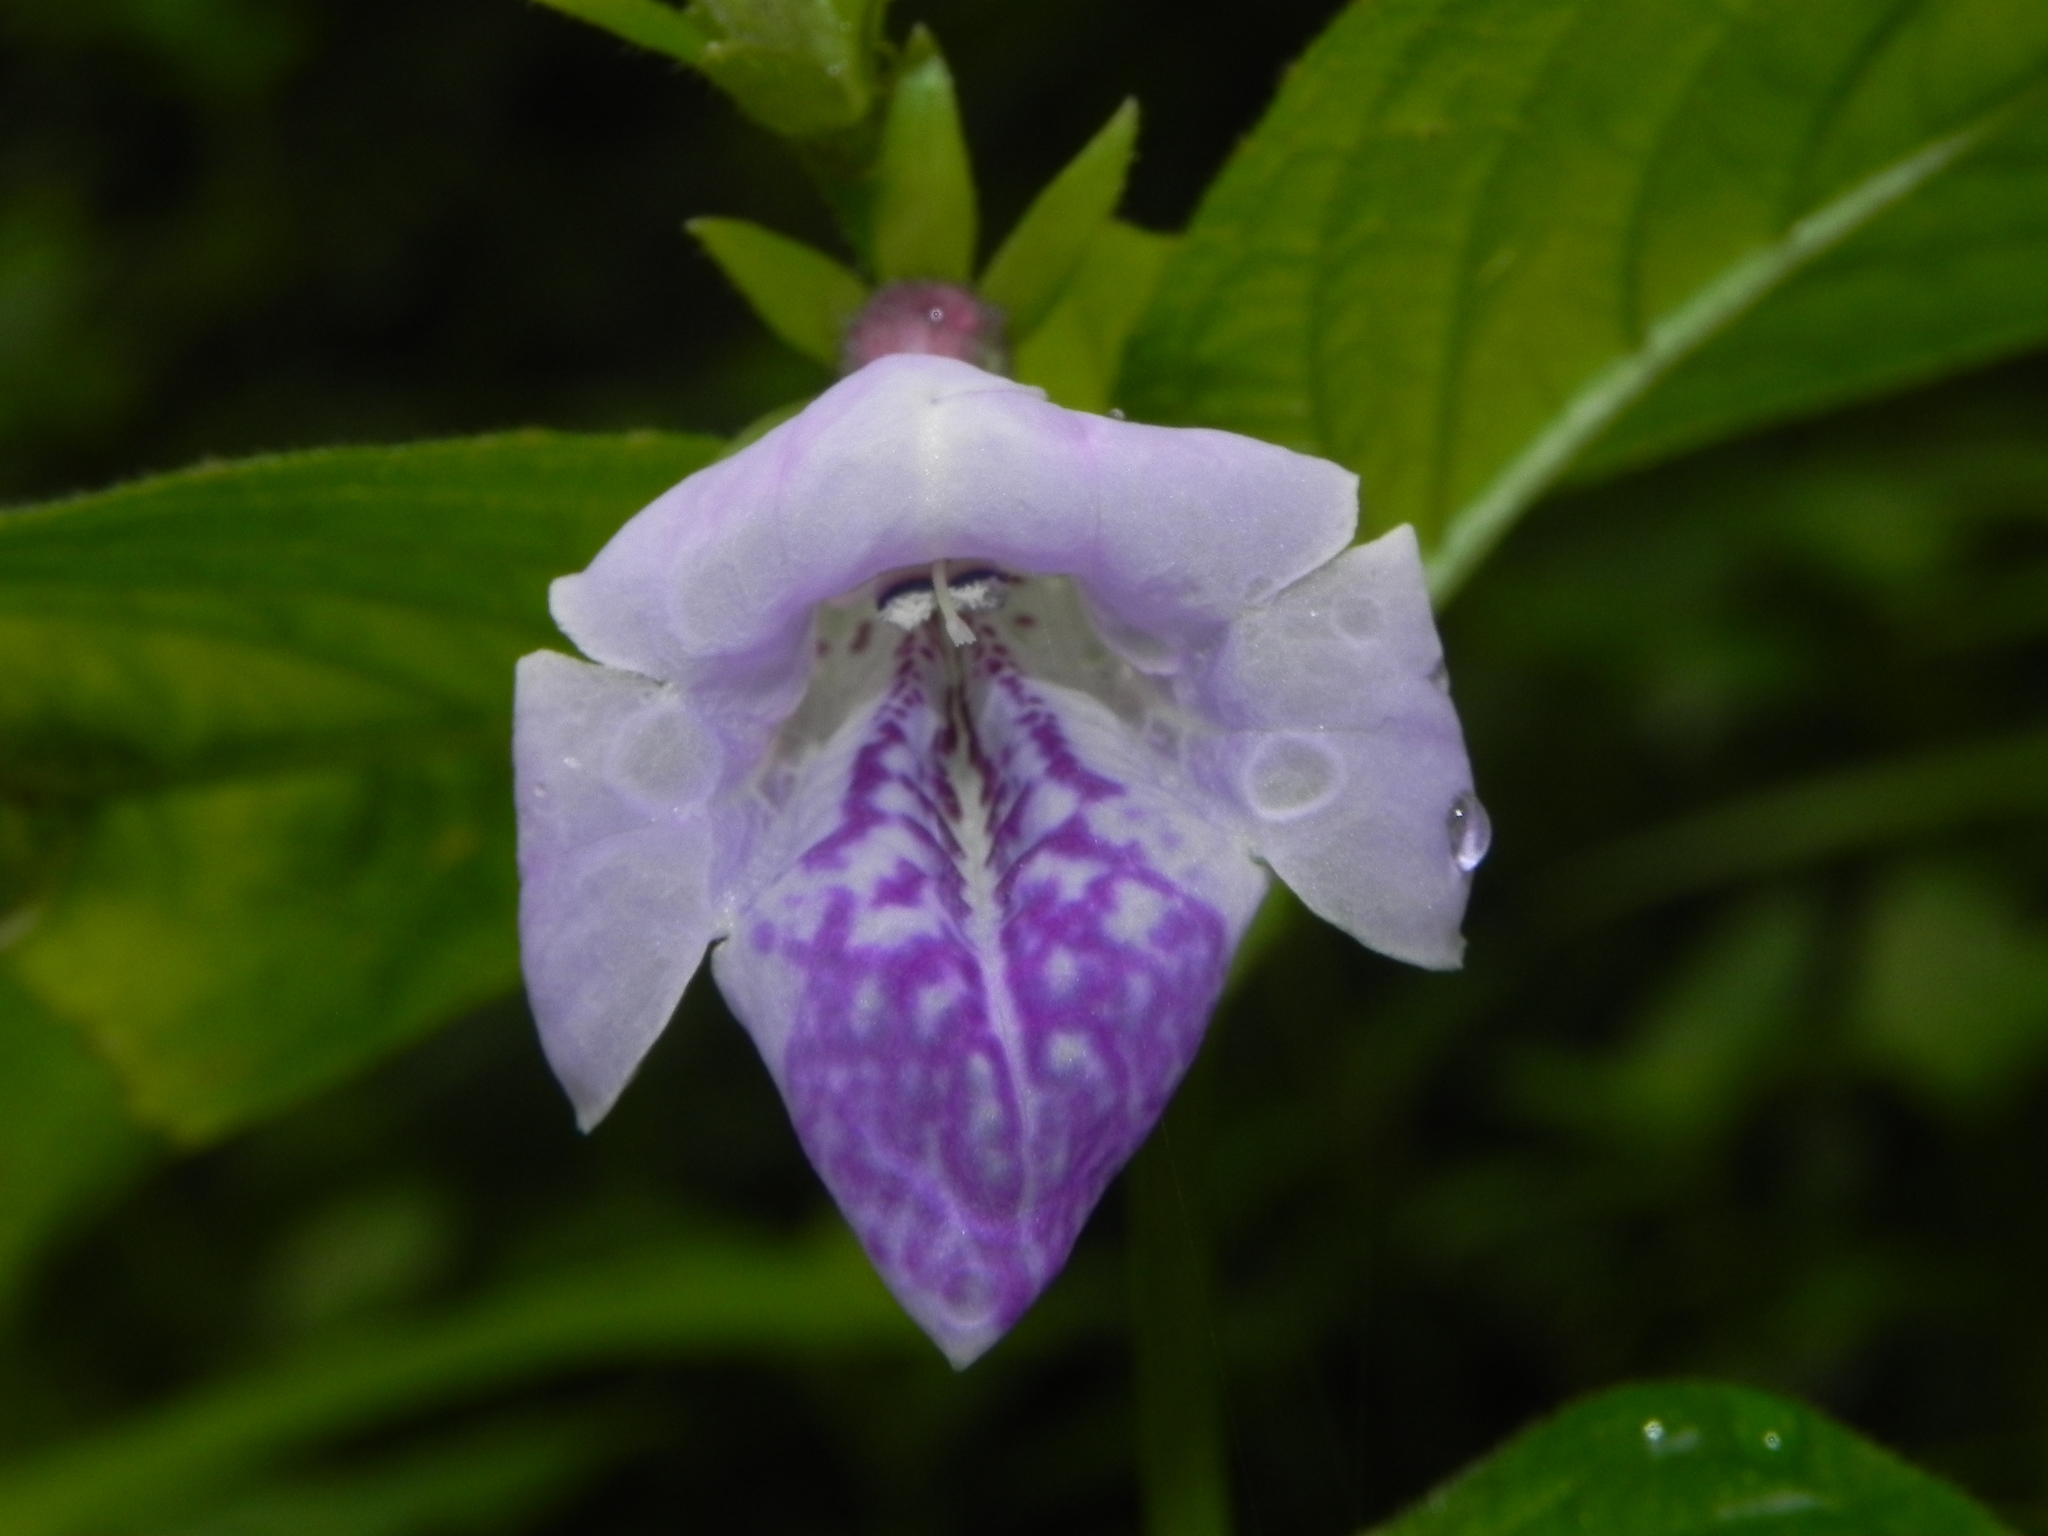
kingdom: Plantae
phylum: Tracheophyta
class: Magnoliopsida
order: Lamiales
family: Acanthaceae
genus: Asystasia
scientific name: Asystasia dalzelliana
